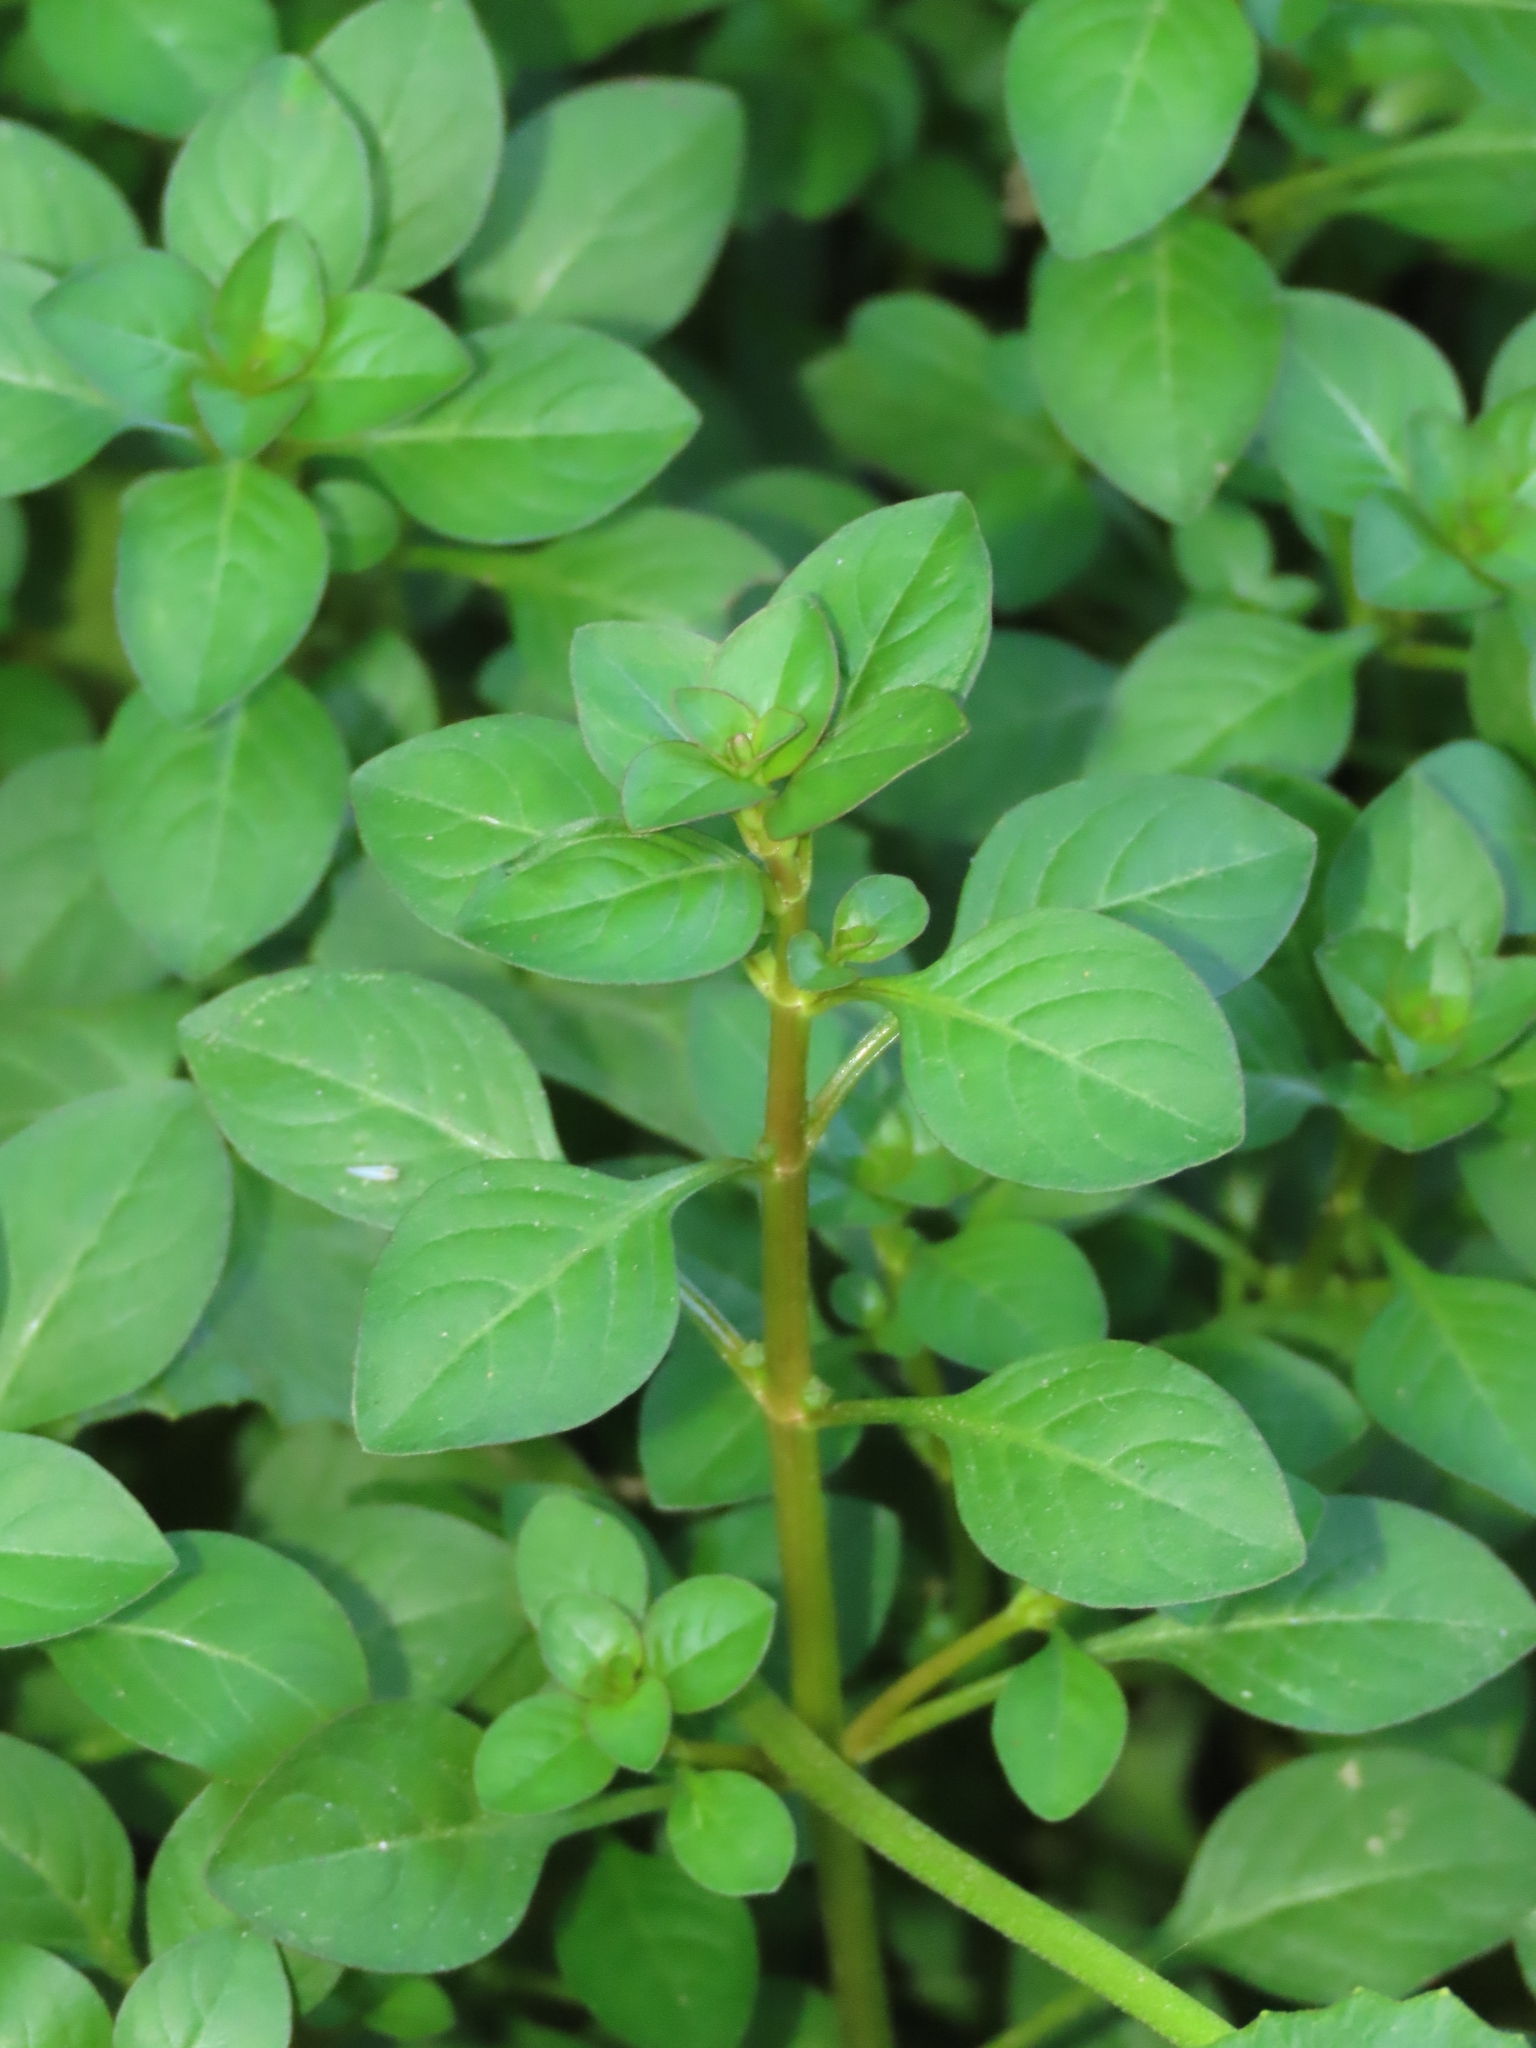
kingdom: Plantae
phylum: Tracheophyta
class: Magnoliopsida
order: Myrtales
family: Onagraceae
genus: Ludwigia
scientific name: Ludwigia palustris
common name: Hampshire-purslane
